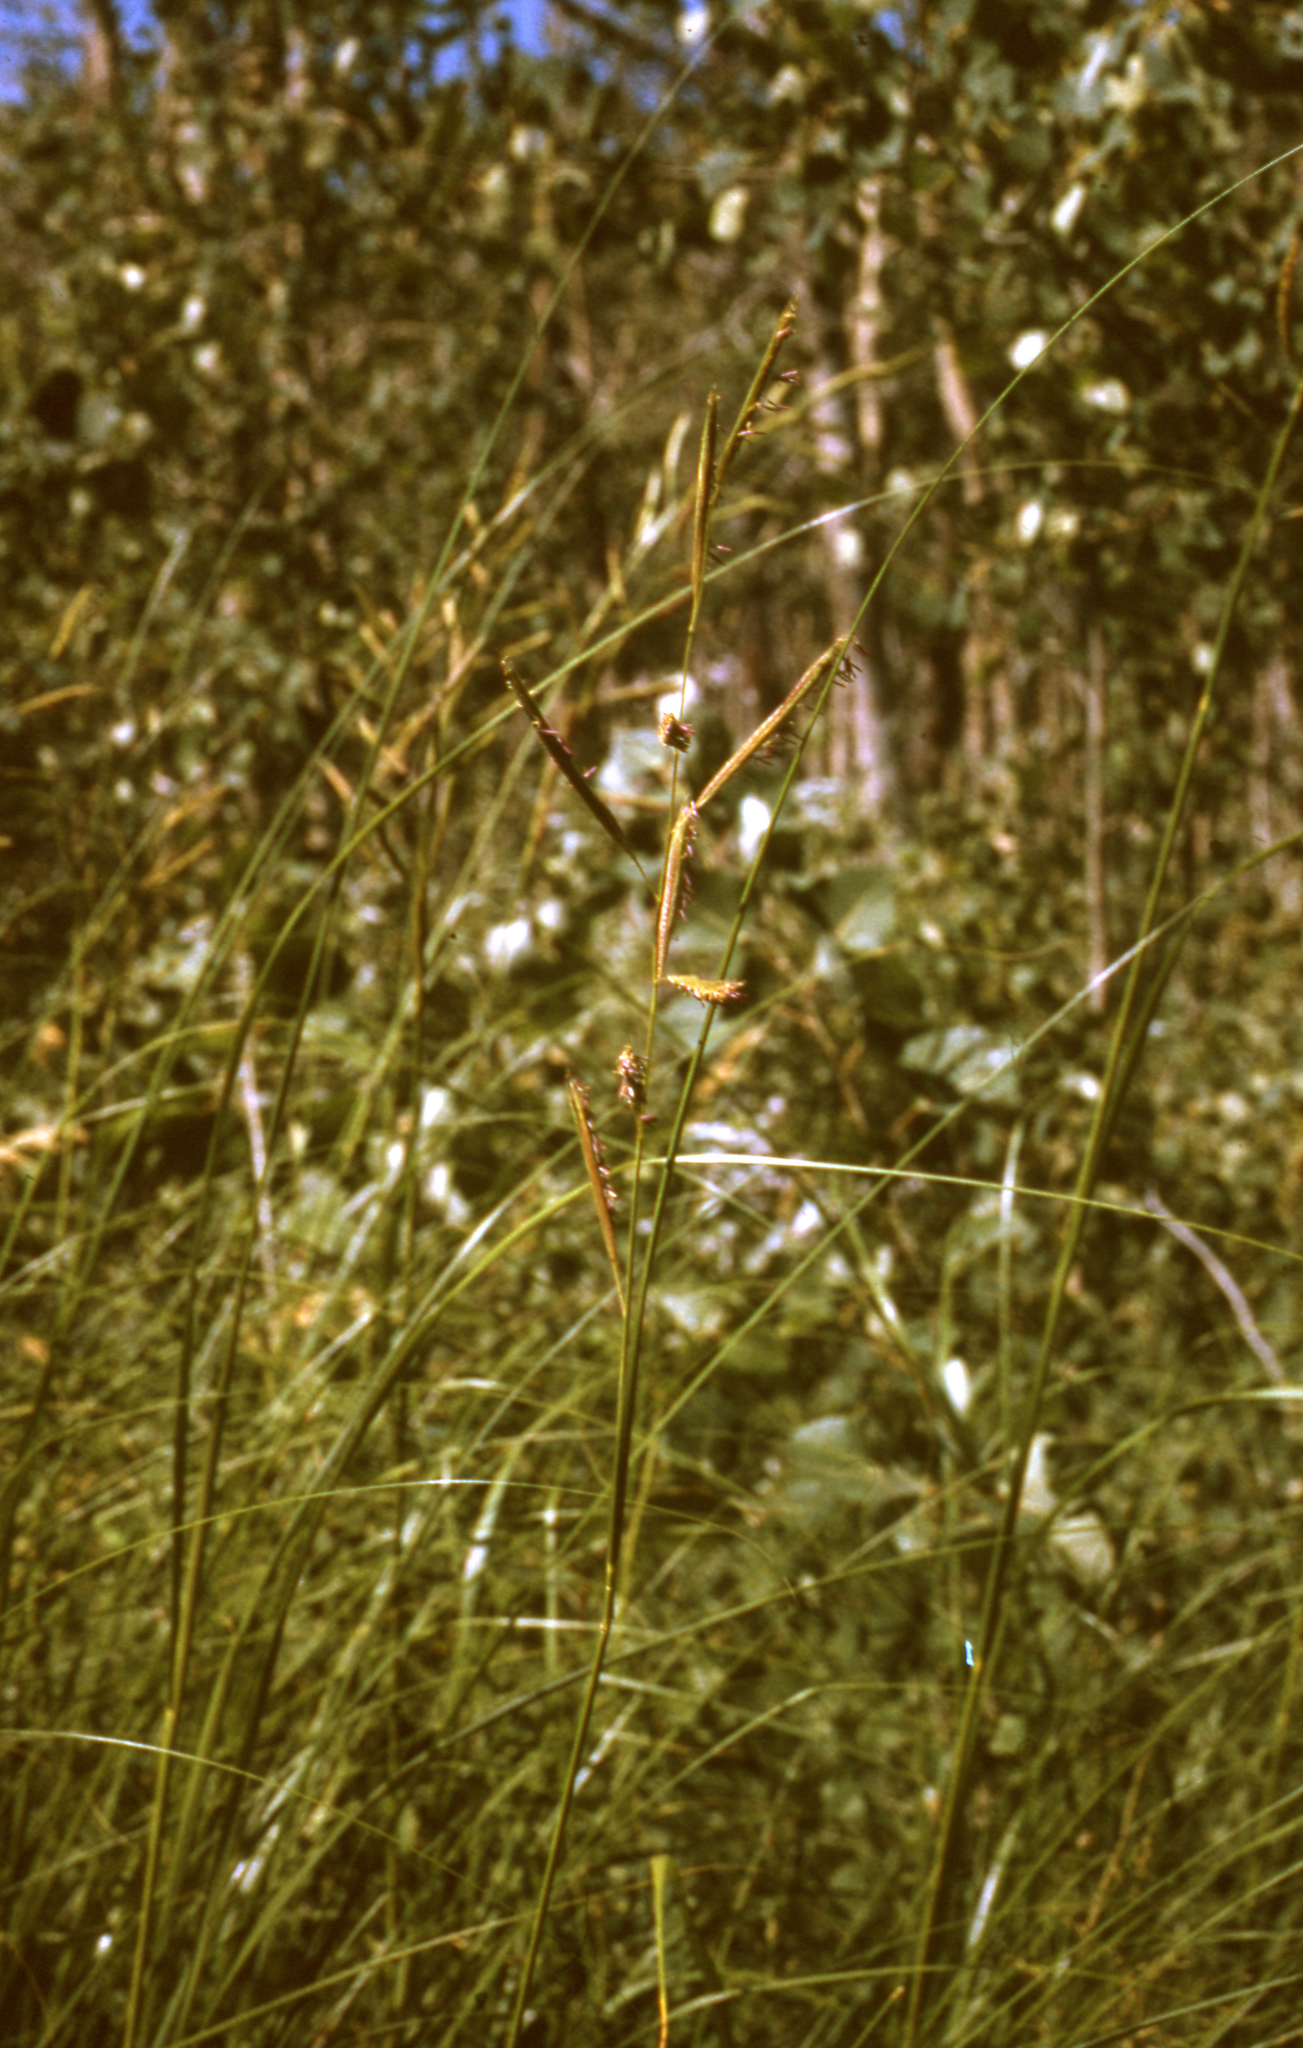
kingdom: Plantae
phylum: Tracheophyta
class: Liliopsida
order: Poales
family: Poaceae
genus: Sporobolus
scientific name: Sporobolus michauxianus
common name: Freshwater cordgrass
